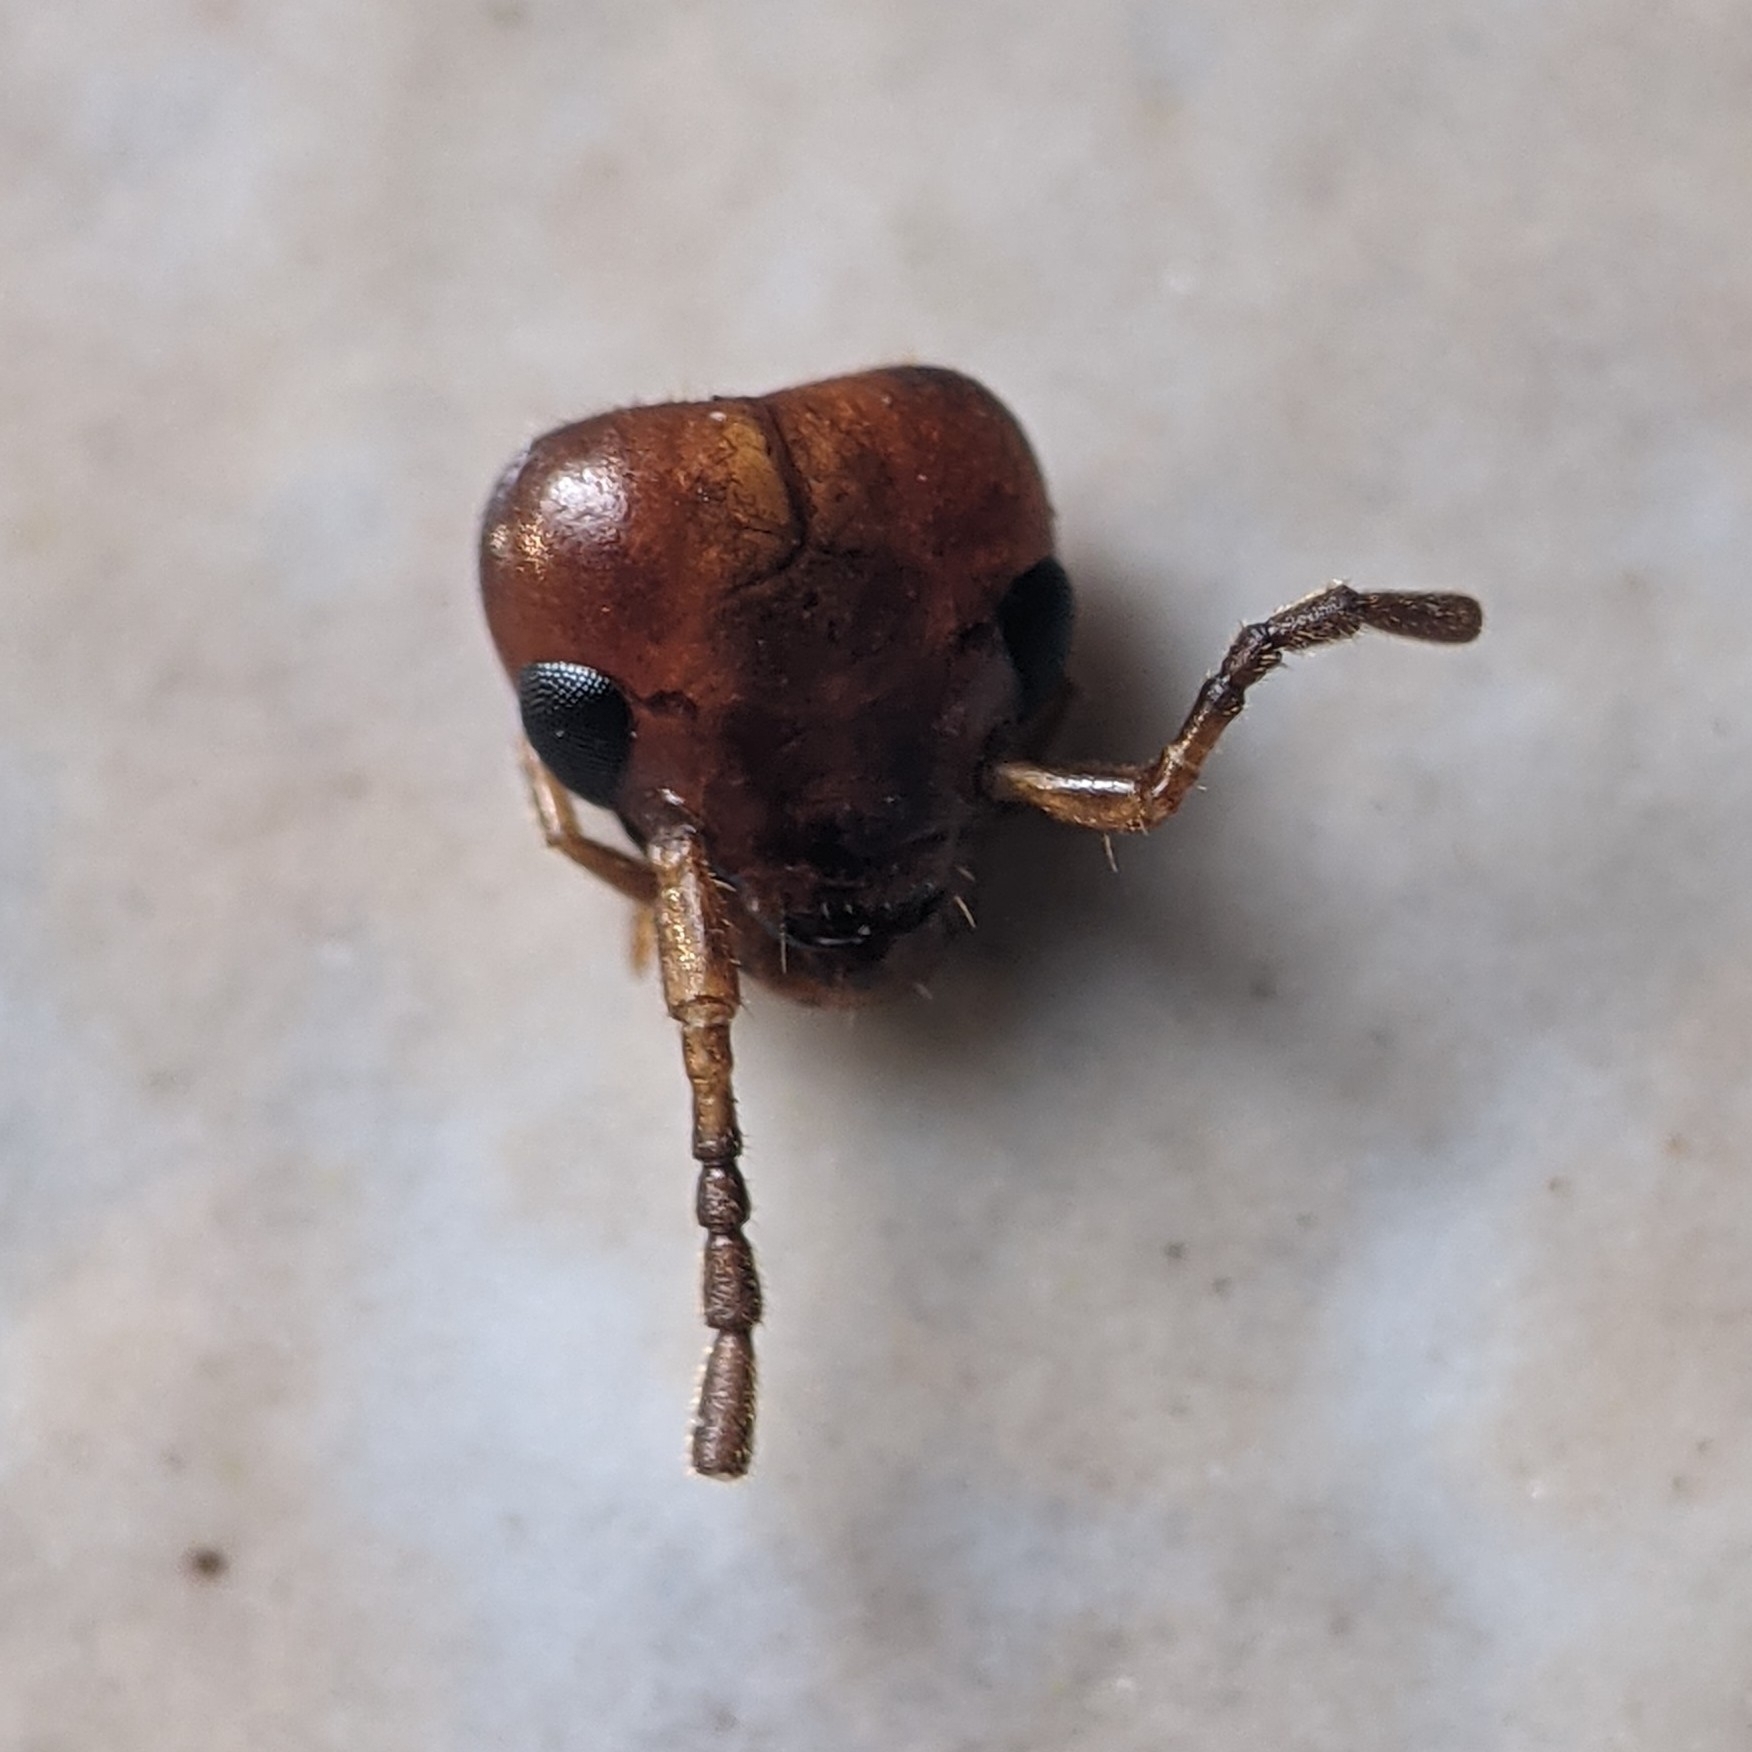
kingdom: Animalia
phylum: Arthropoda
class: Insecta
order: Dermaptera
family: Forficulidae
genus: Forficula
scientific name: Forficula
